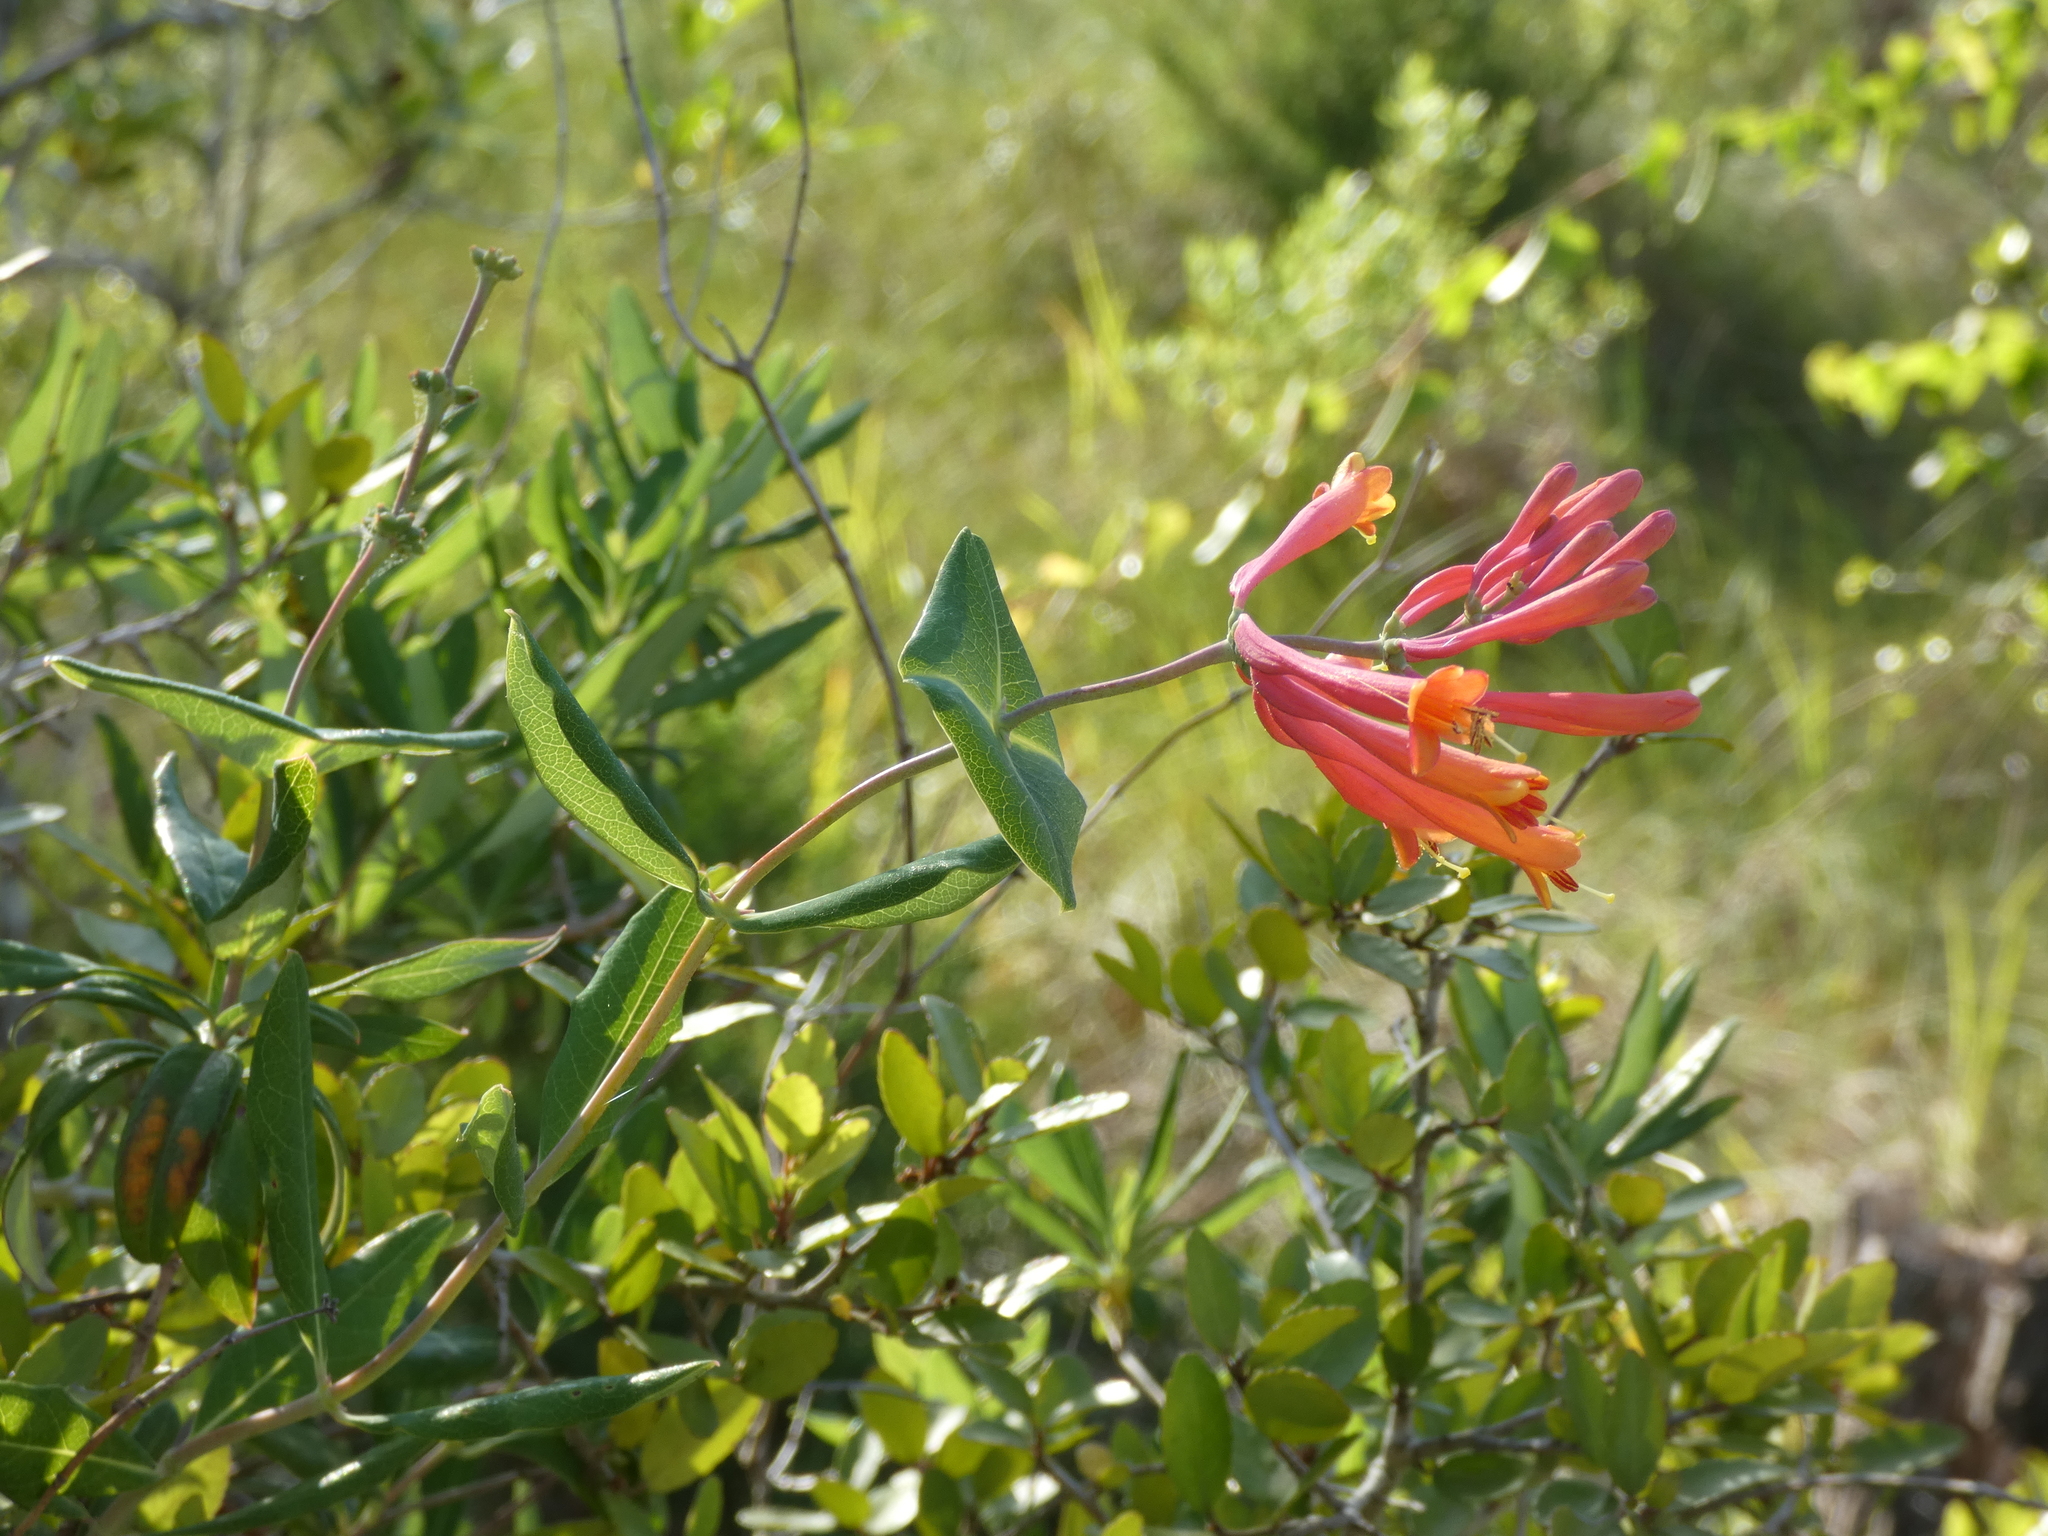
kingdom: Plantae
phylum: Tracheophyta
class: Magnoliopsida
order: Dipsacales
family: Caprifoliaceae
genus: Lonicera
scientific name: Lonicera sempervirens
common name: Coral honeysuckle
